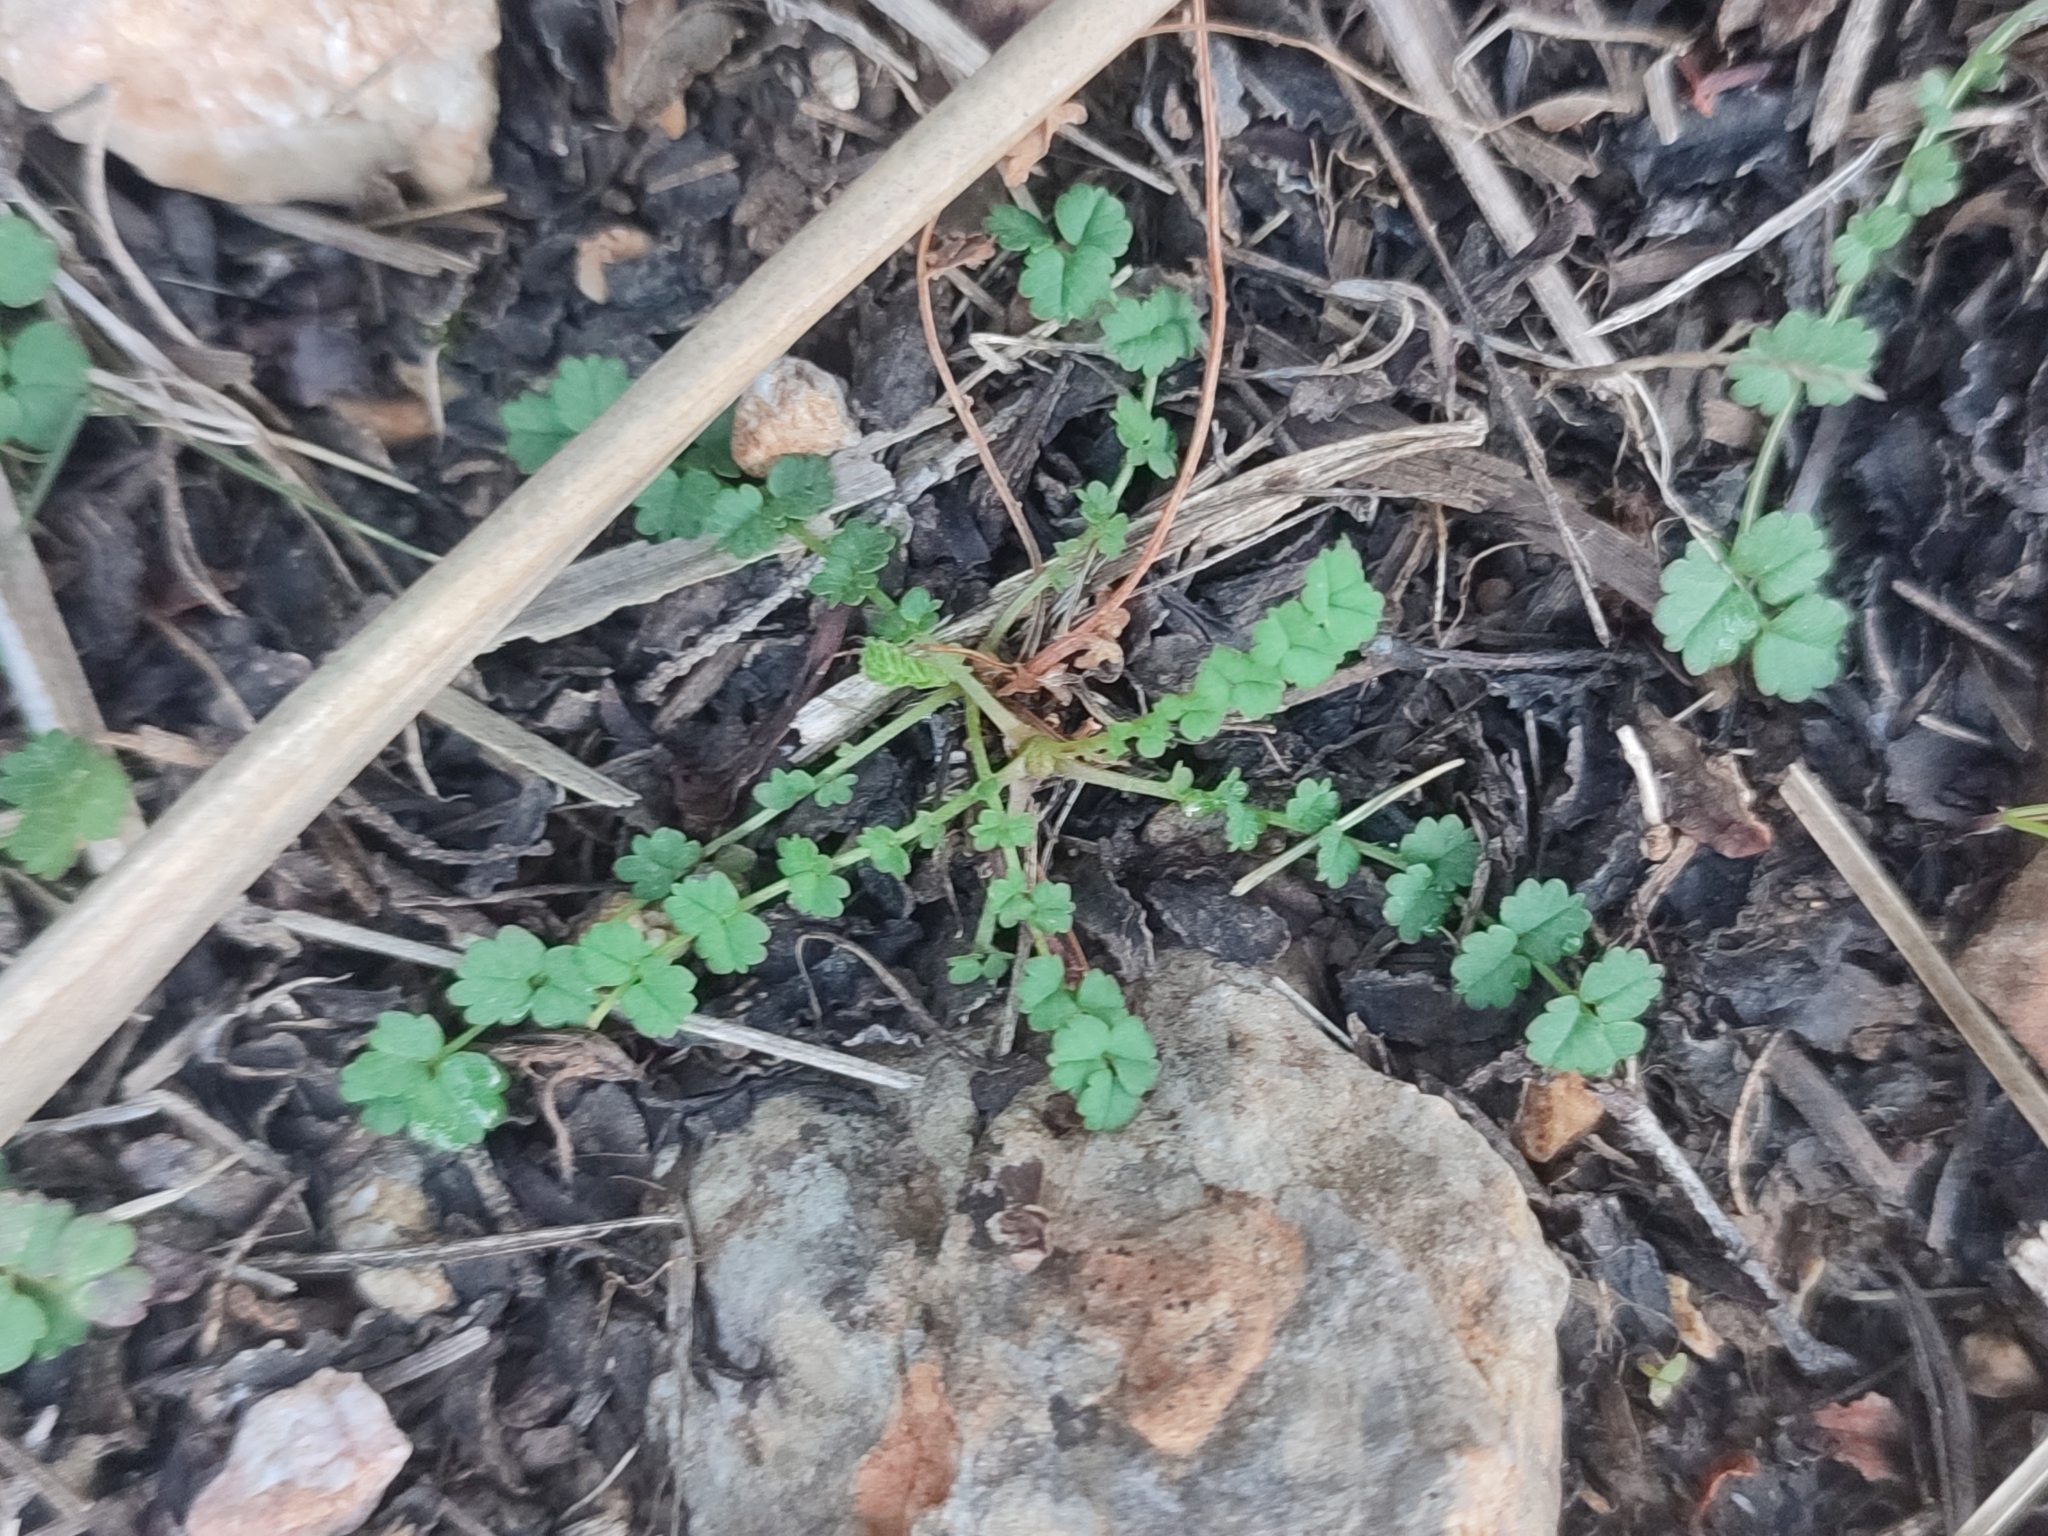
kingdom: Plantae
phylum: Tracheophyta
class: Magnoliopsida
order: Rosales
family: Rosaceae
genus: Poterium
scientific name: Poterium sanguisorba
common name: Salad burnet
